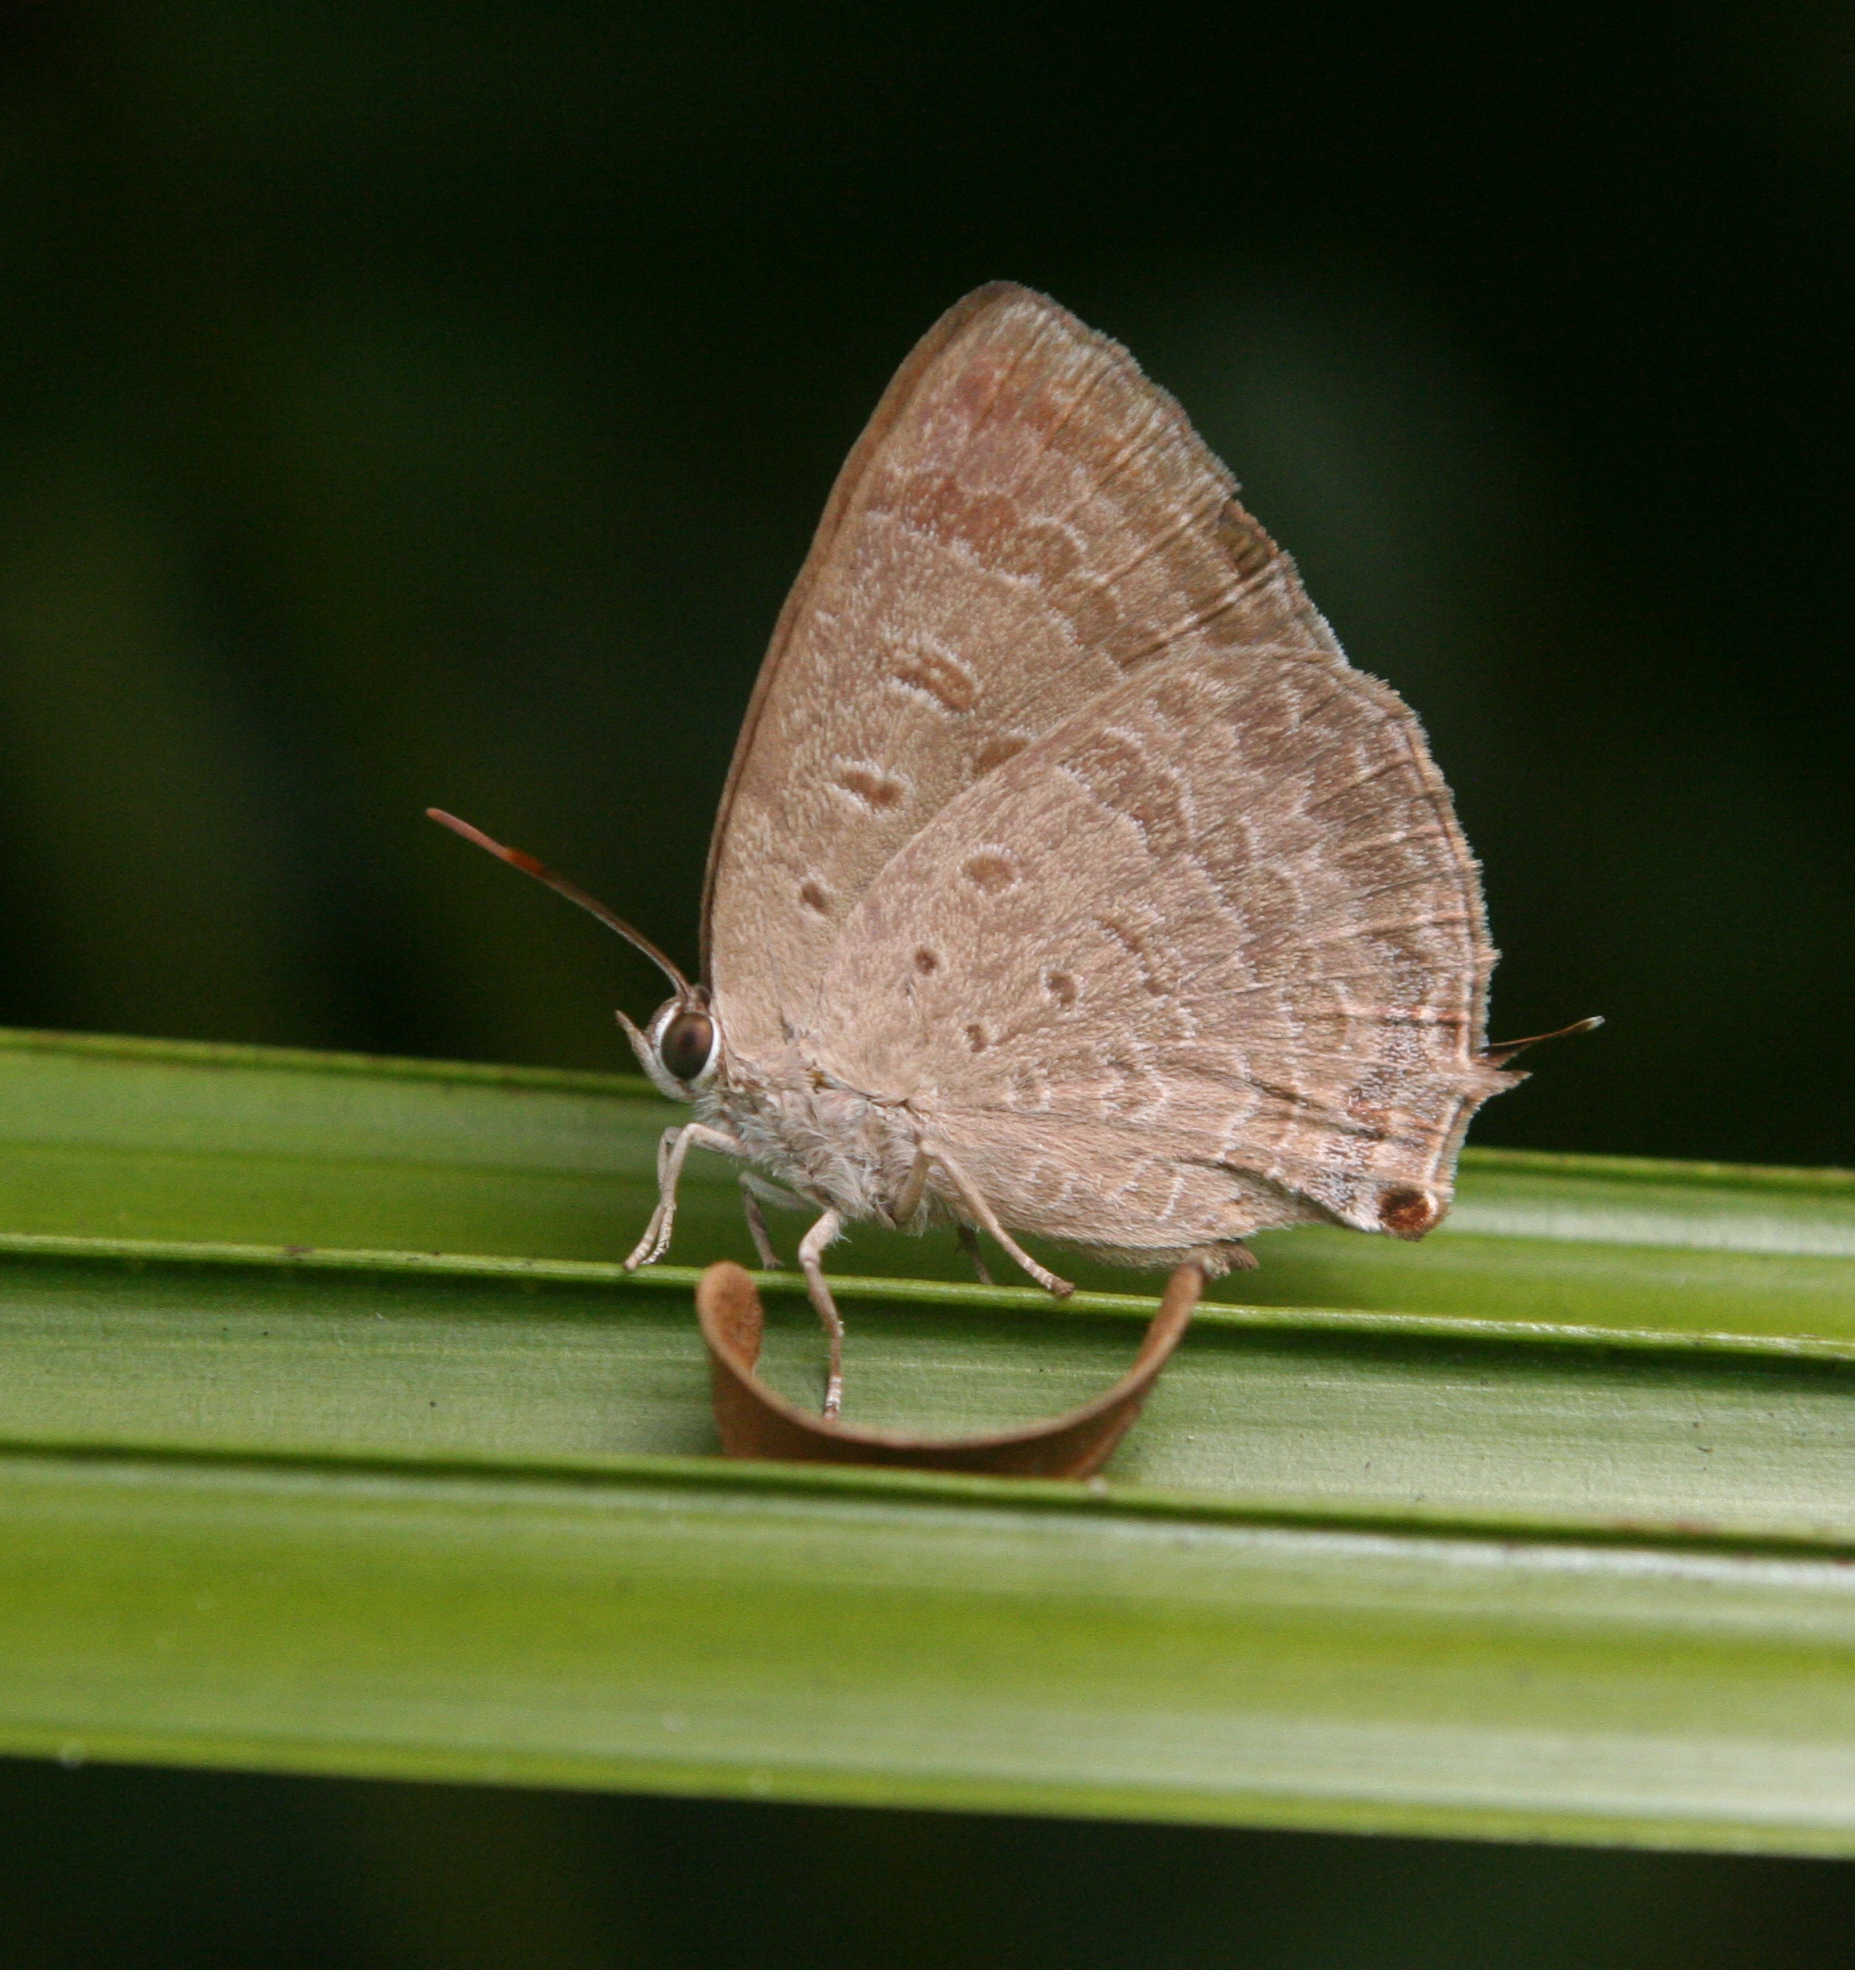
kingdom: Animalia
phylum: Arthropoda
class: Insecta
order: Lepidoptera
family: Lycaenidae
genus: Arhopala
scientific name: Arhopala atrax
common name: Indian oakblue
